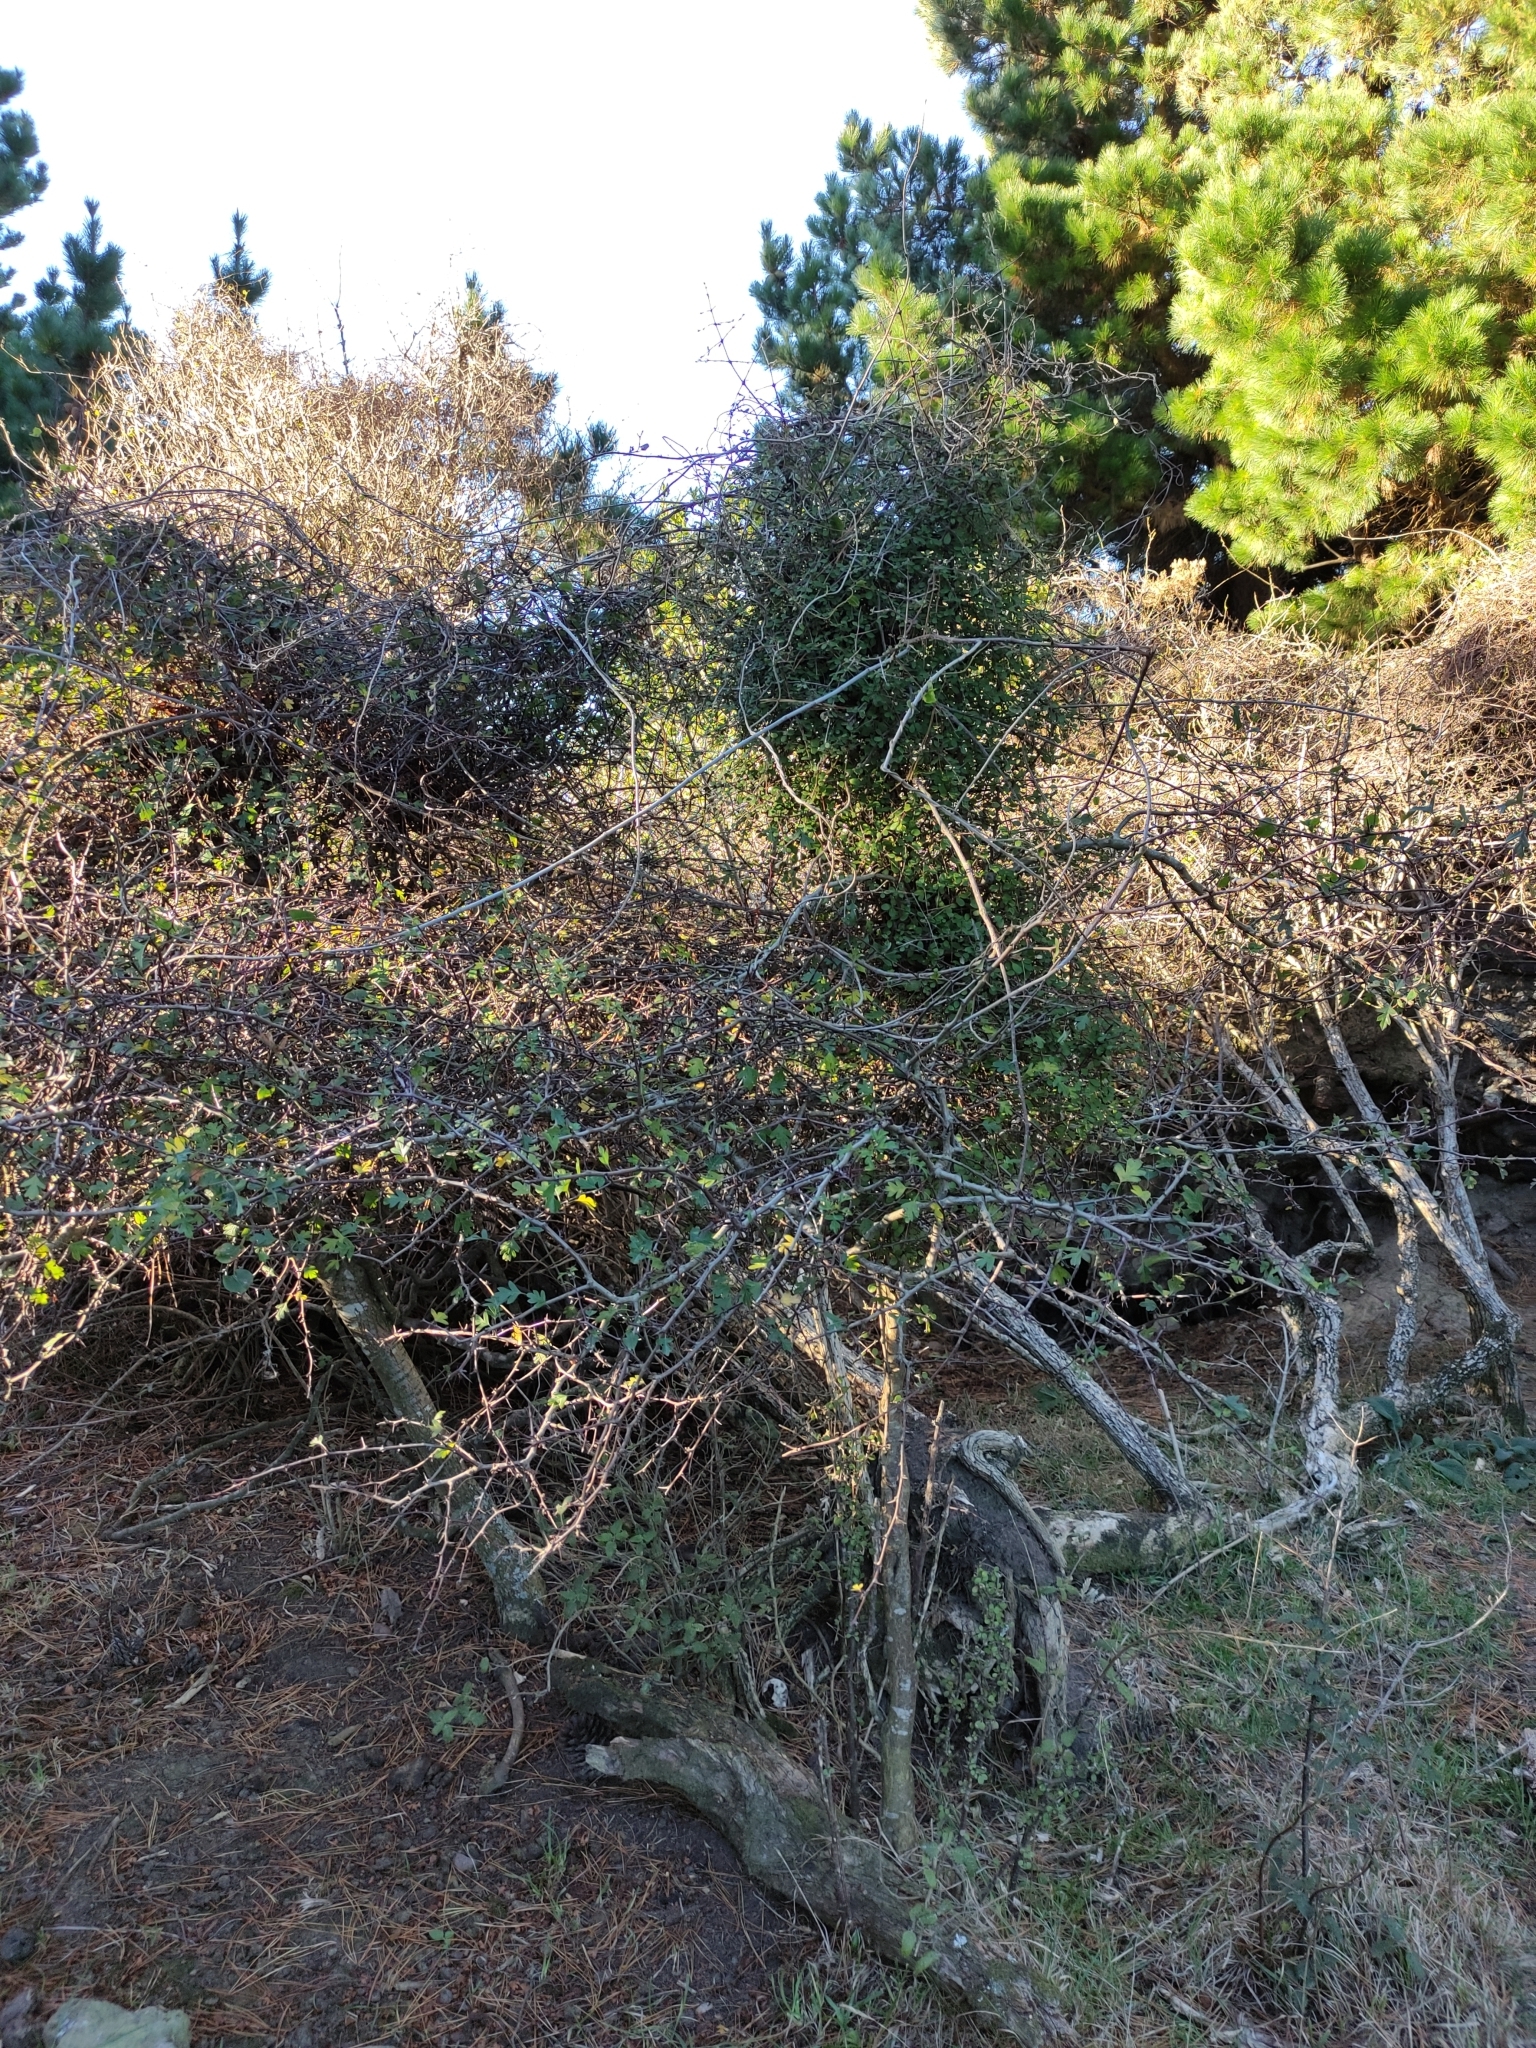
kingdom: Plantae
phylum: Tracheophyta
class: Magnoliopsida
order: Rosales
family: Rosaceae
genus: Crataegus
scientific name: Crataegus monogyna
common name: Hawthorn
